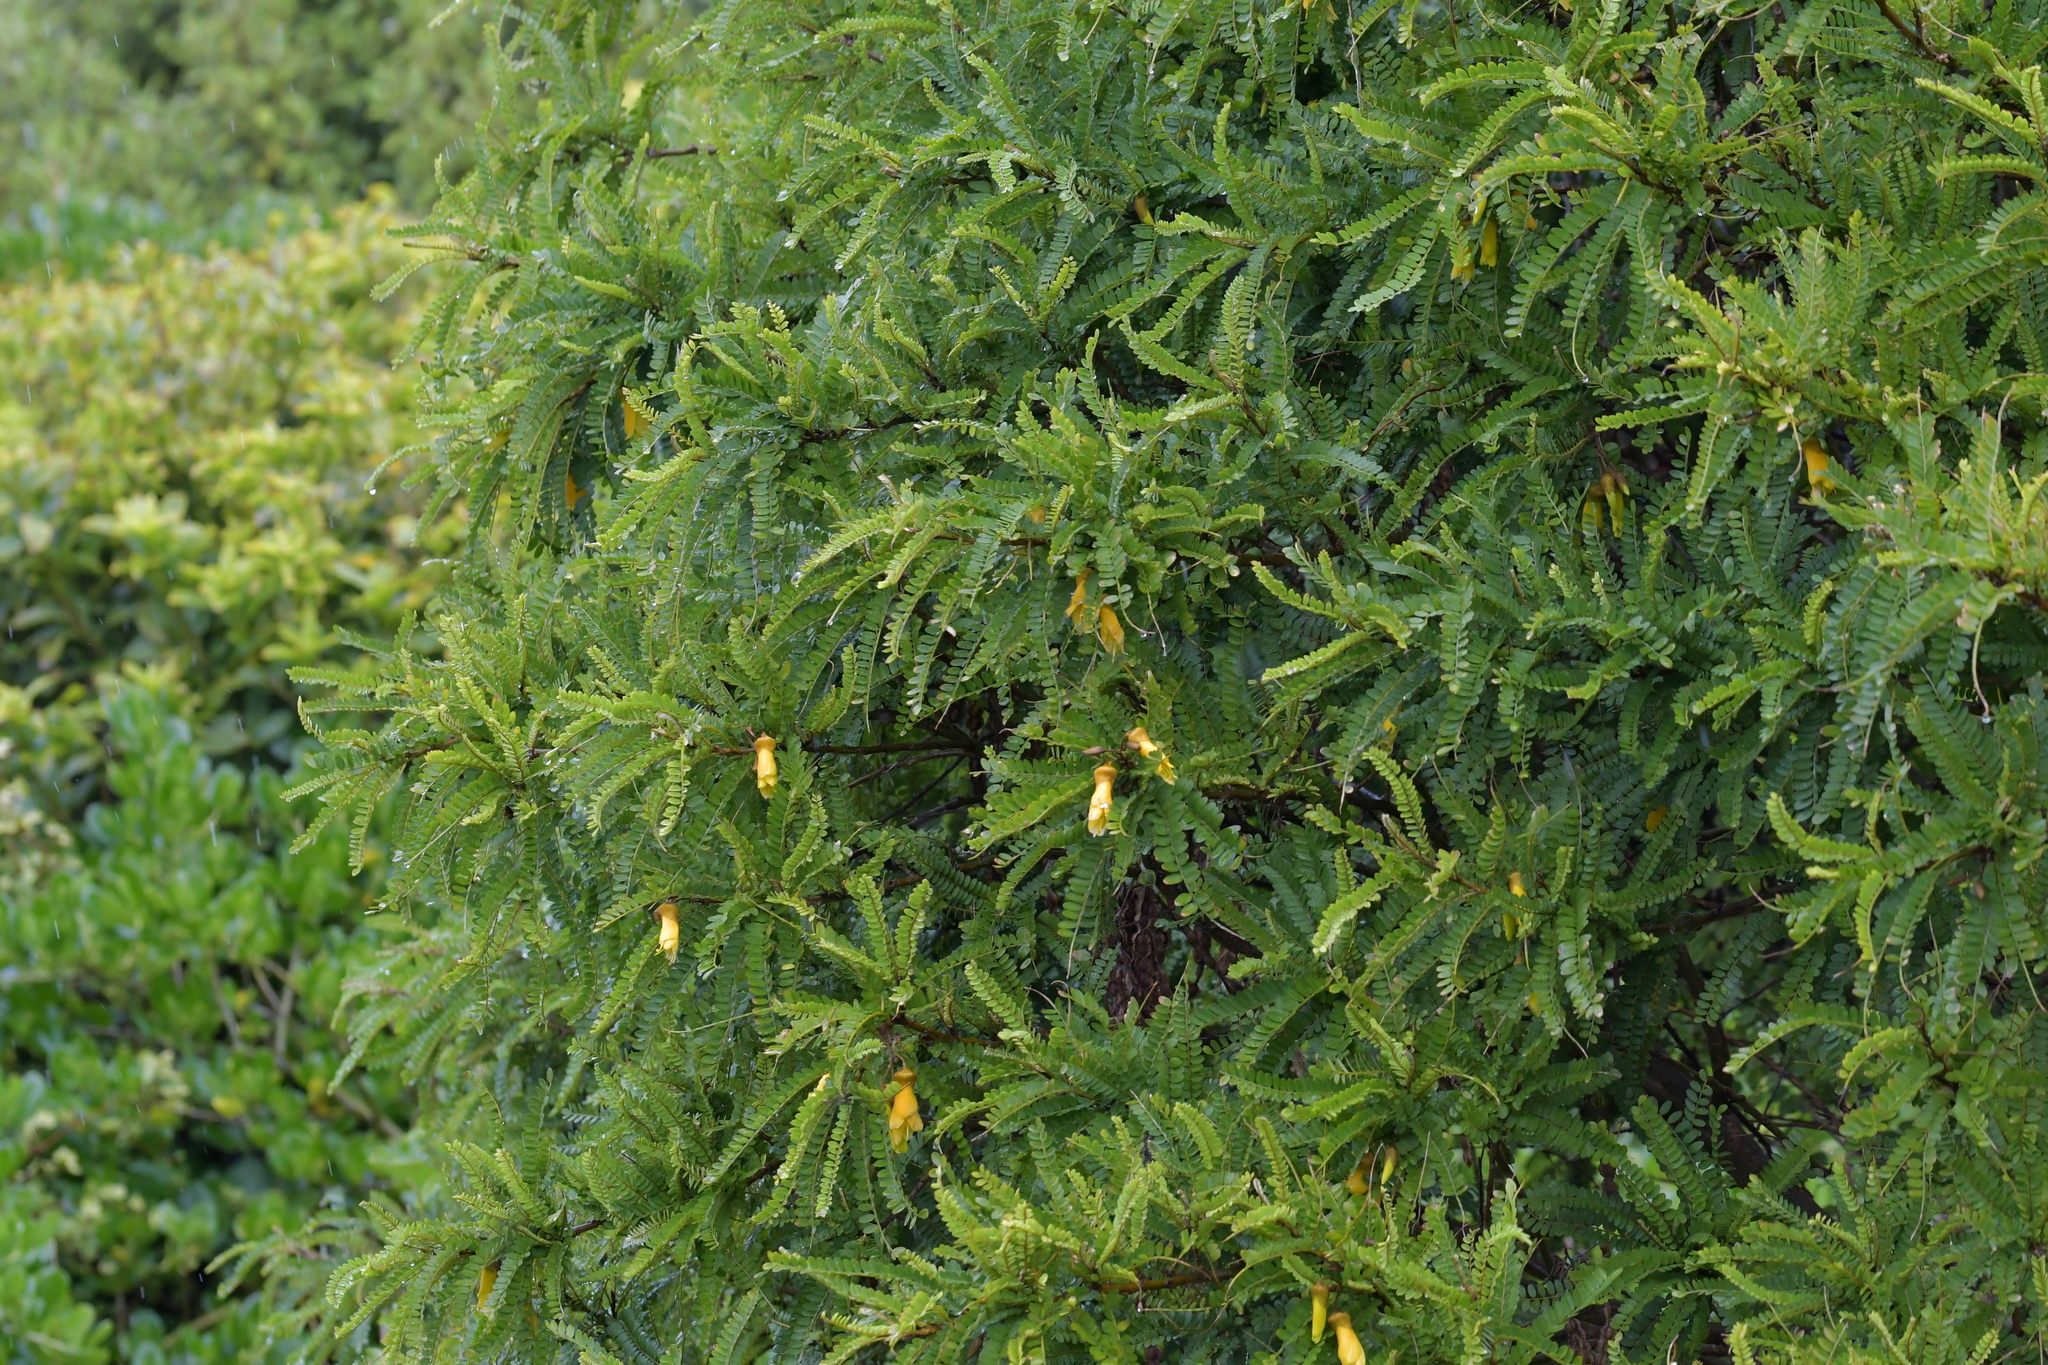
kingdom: Plantae
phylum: Tracheophyta
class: Magnoliopsida
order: Fabales
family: Fabaceae
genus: Sophora
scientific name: Sophora molloyi
